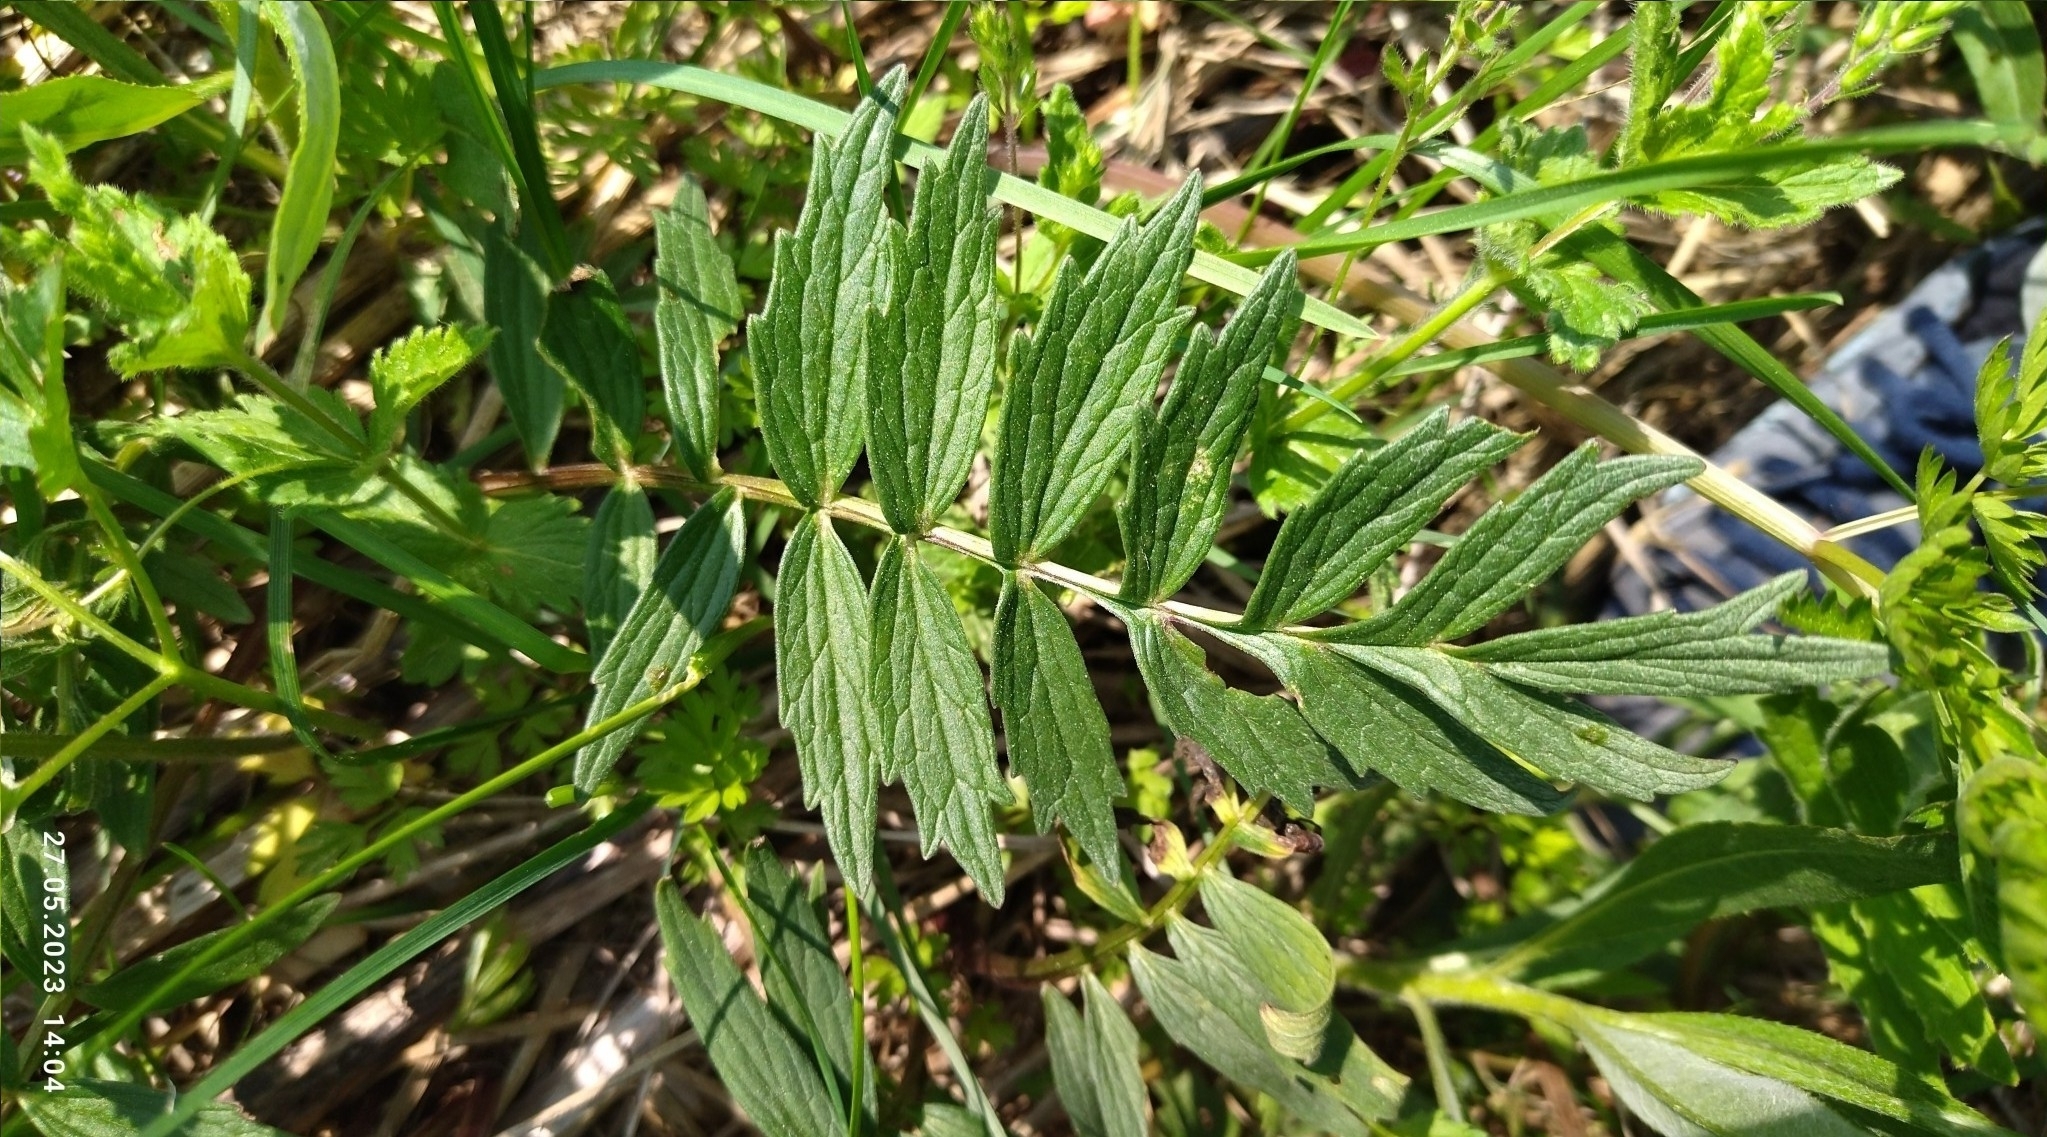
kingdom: Plantae
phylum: Tracheophyta
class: Magnoliopsida
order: Dipsacales
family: Caprifoliaceae
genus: Valeriana
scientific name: Valeriana officinalis
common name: Common valerian
